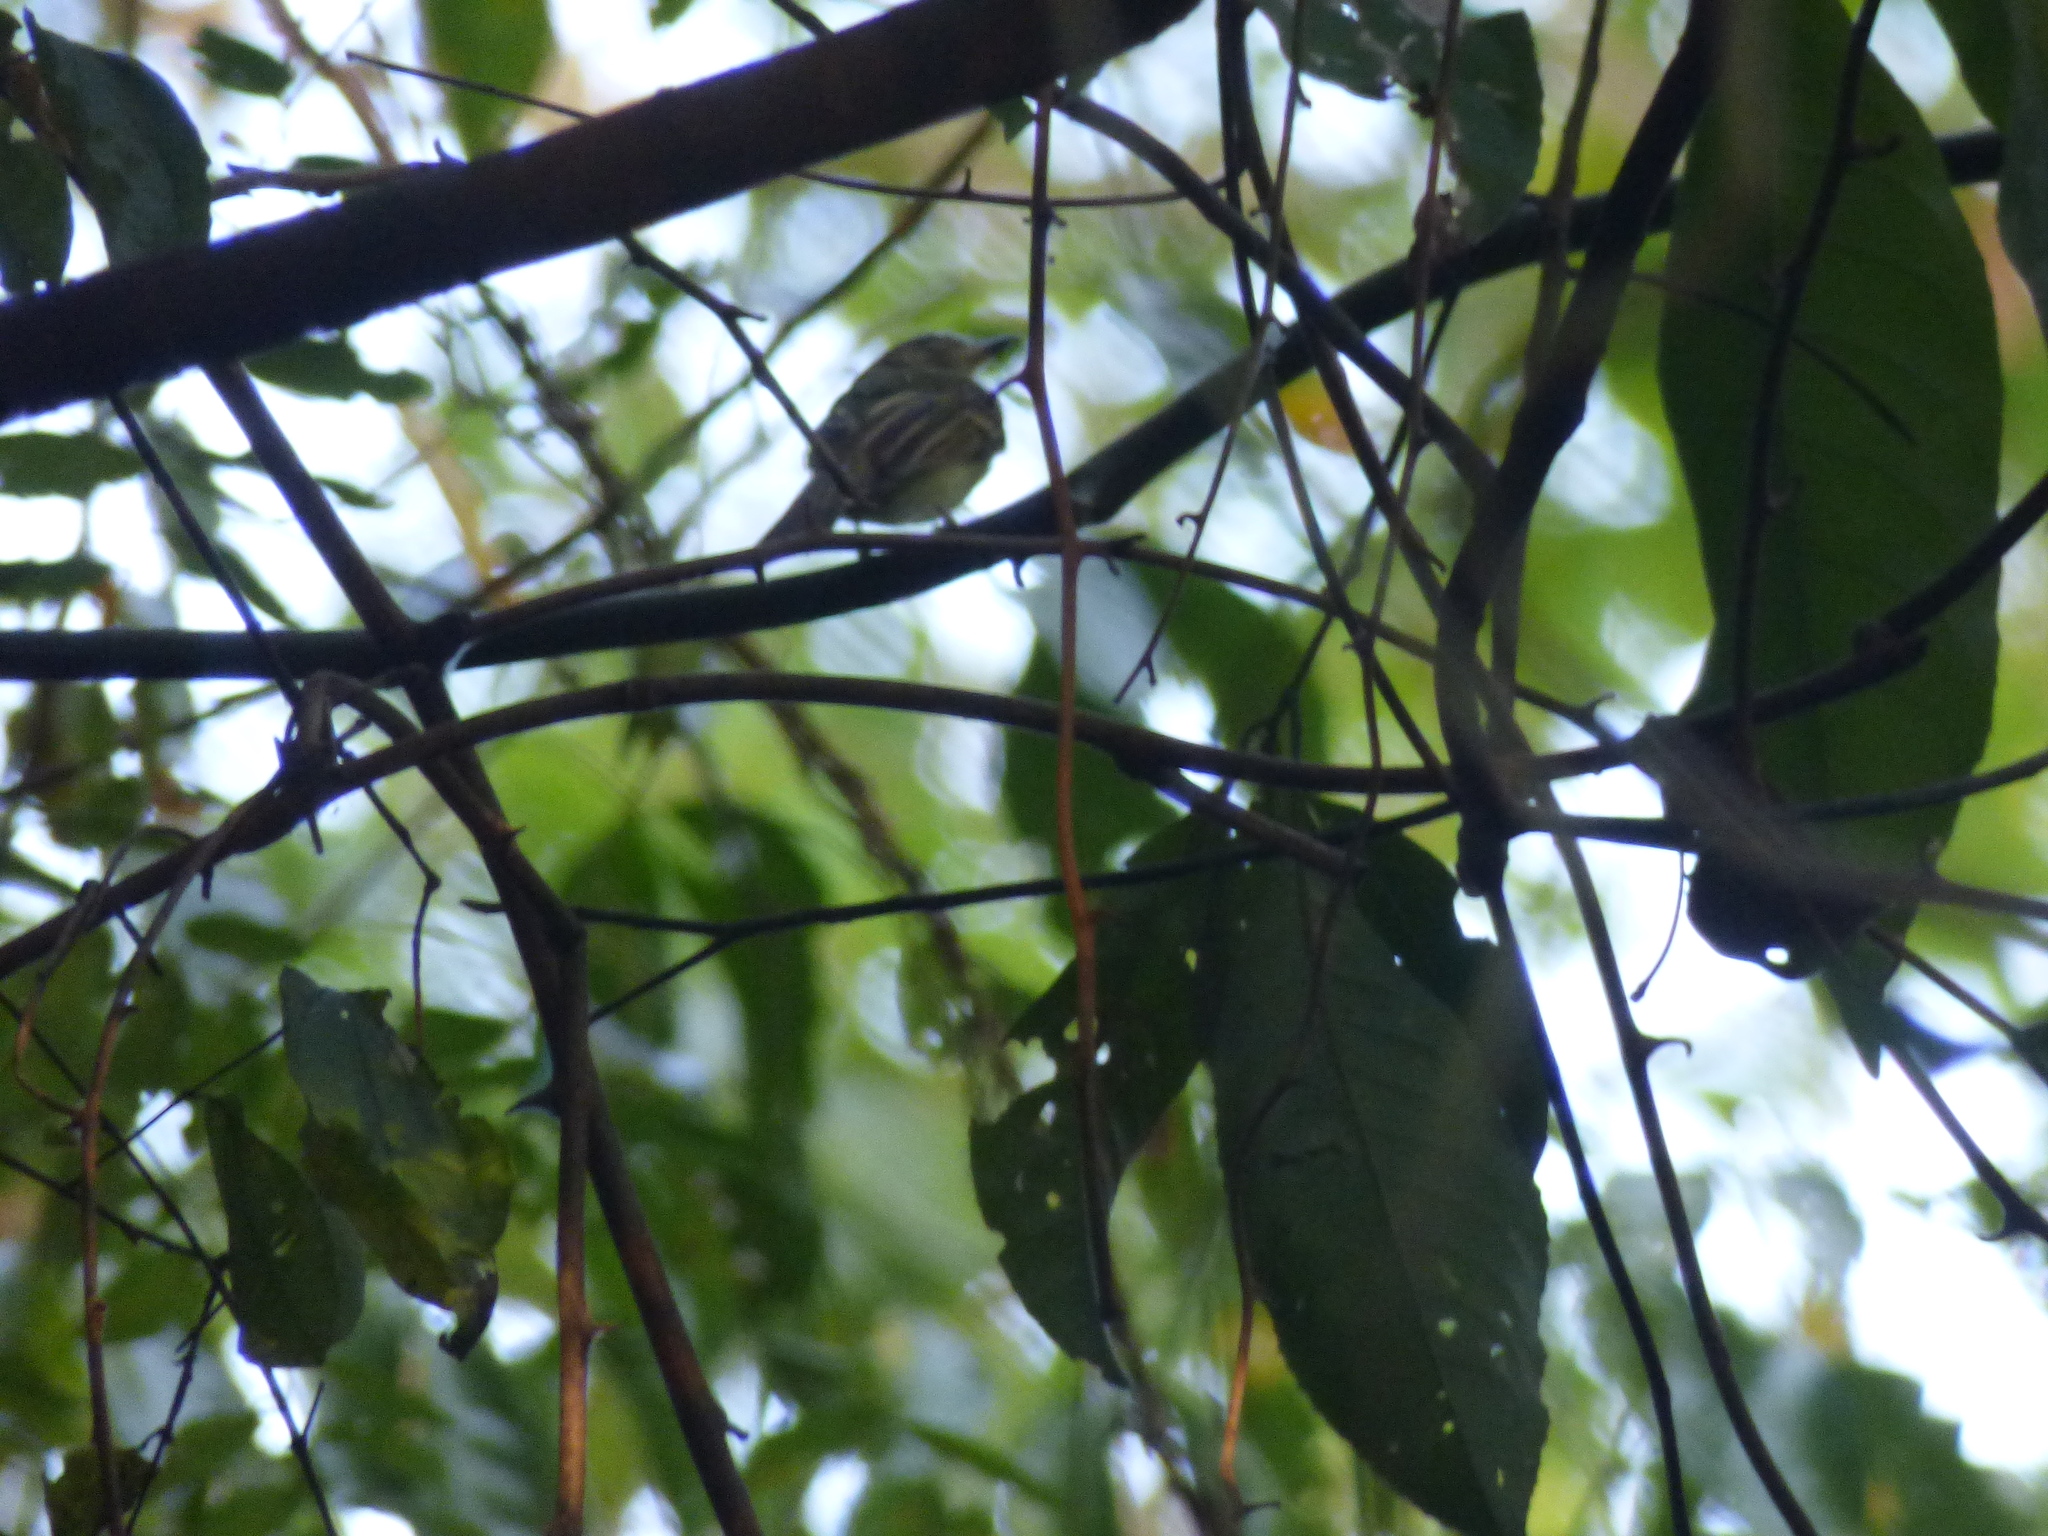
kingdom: Animalia
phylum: Chordata
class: Aves
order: Passeriformes
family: Tyrannidae
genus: Aphanotriccus
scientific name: Aphanotriccus audax
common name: Black-billed flycatcher
